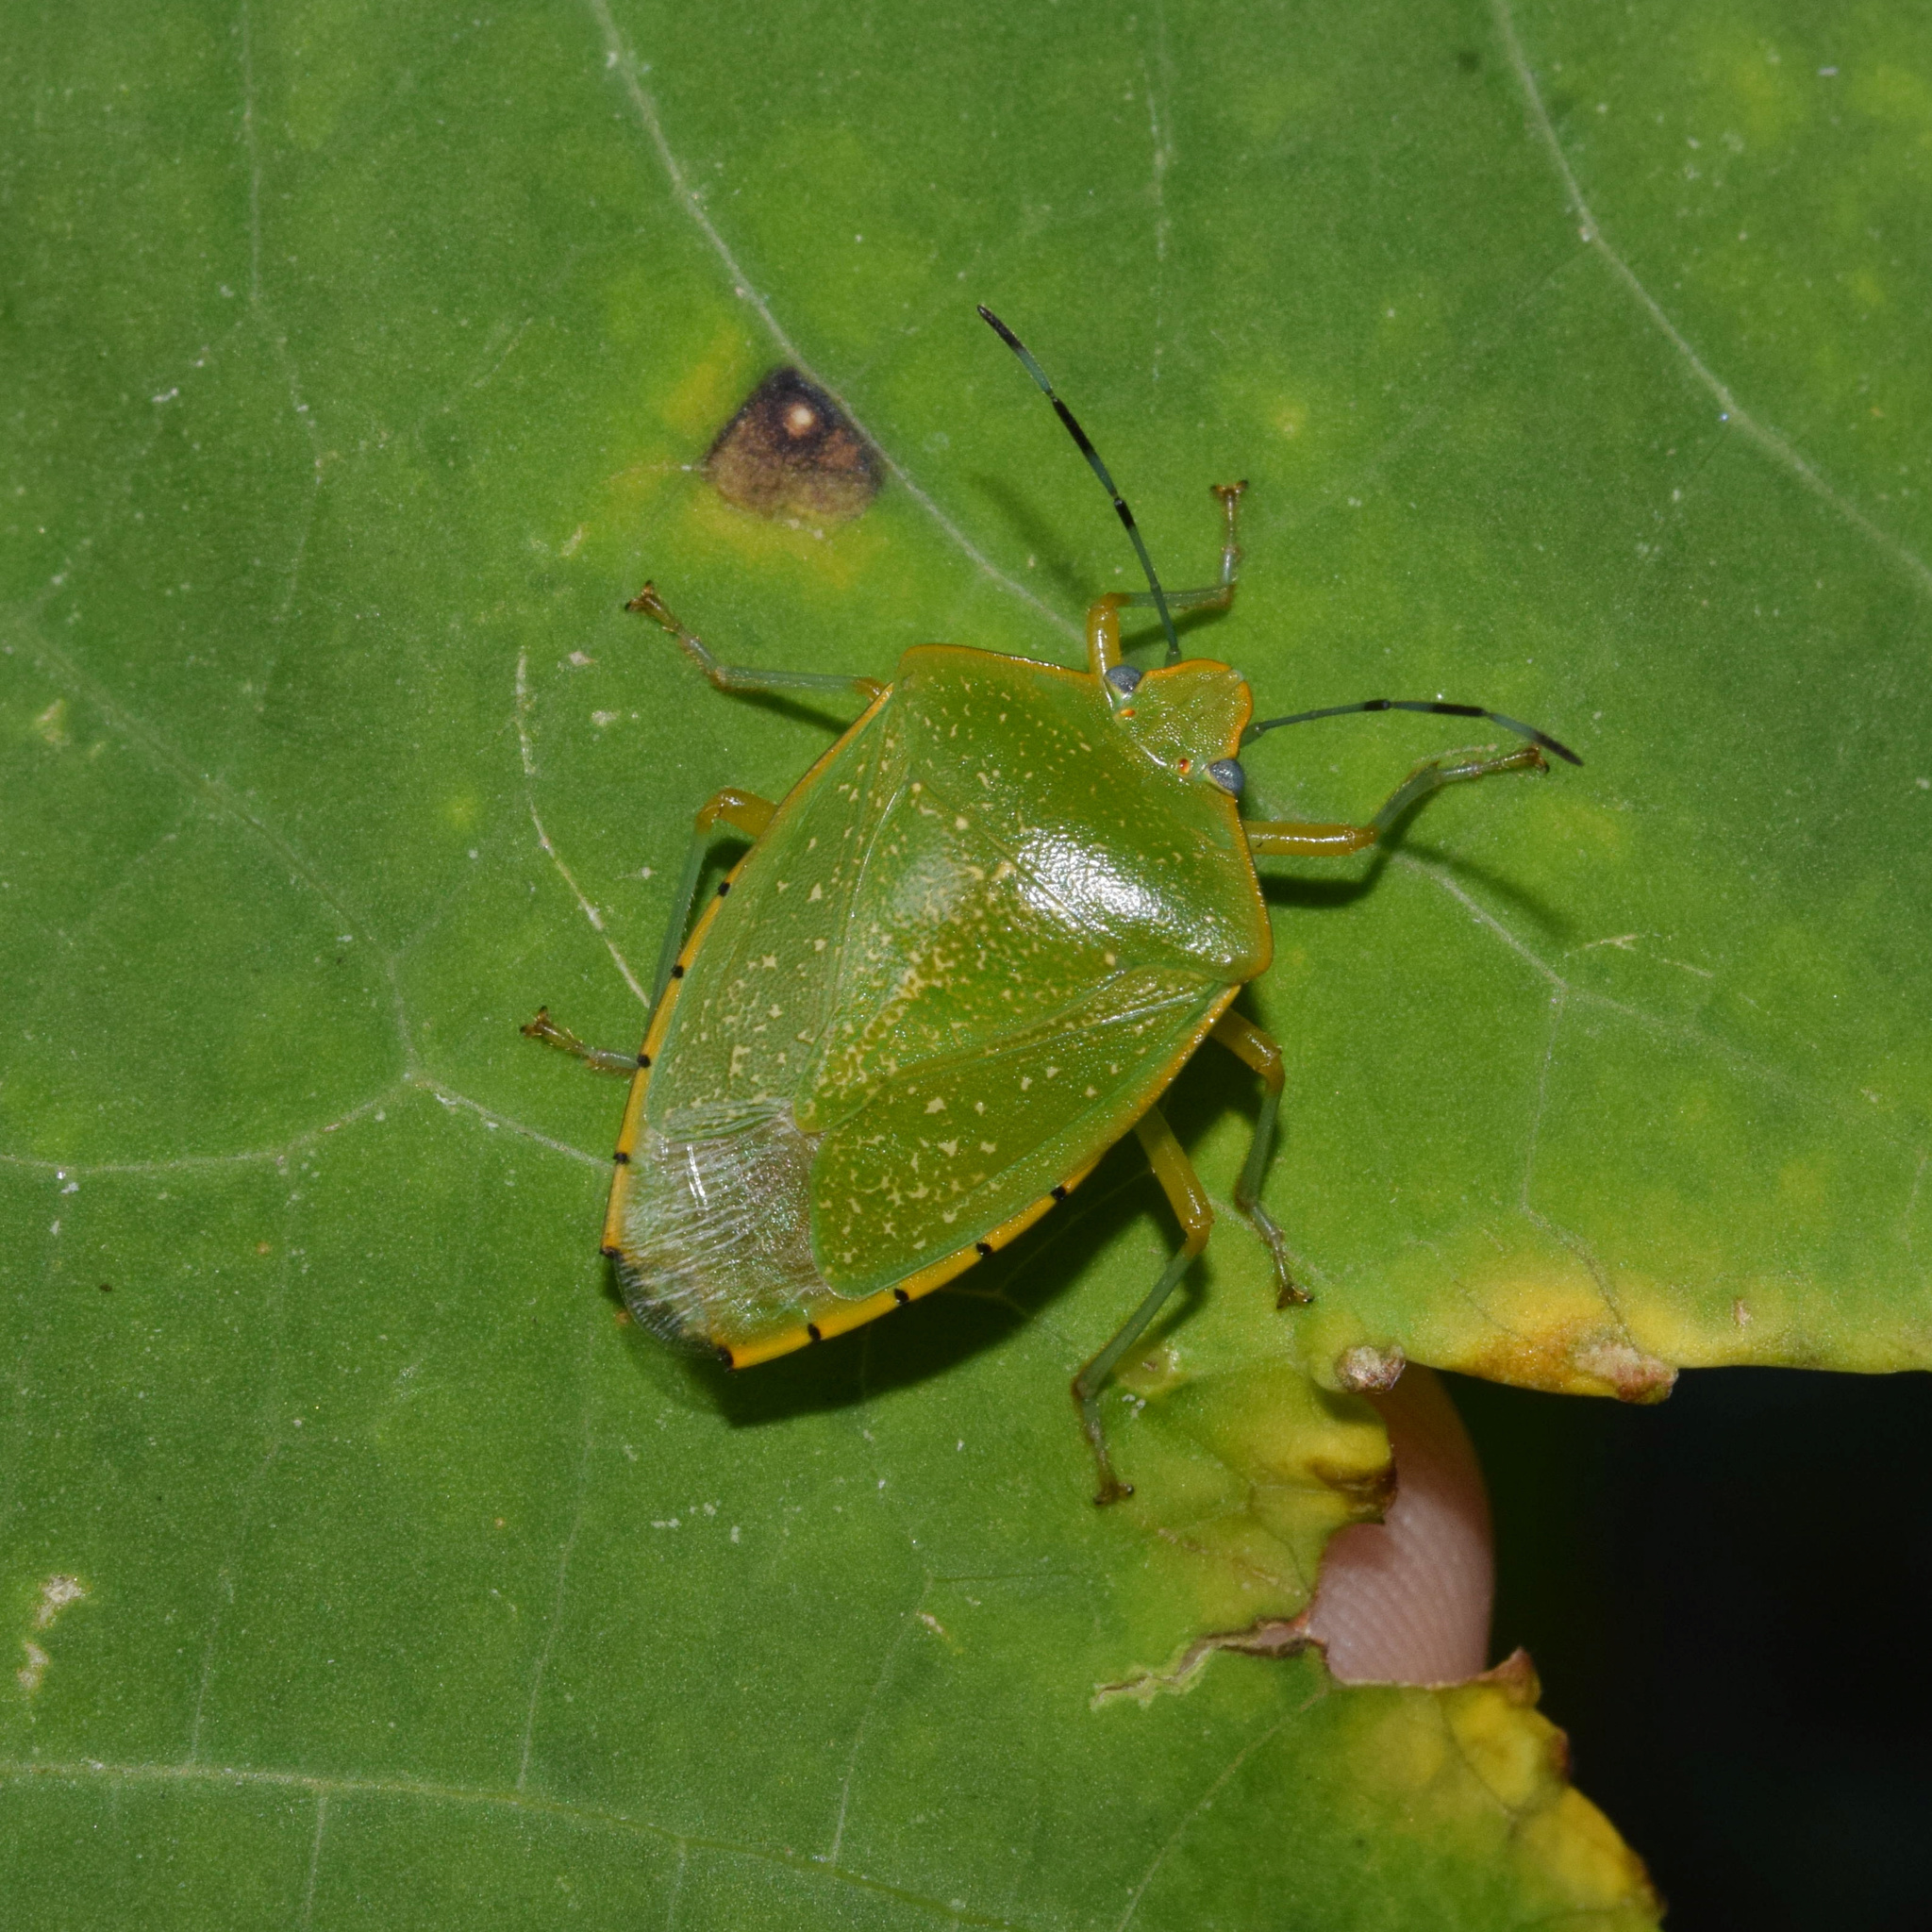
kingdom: Animalia
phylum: Arthropoda
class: Insecta
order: Hemiptera
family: Pentatomidae
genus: Chinavia
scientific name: Chinavia
